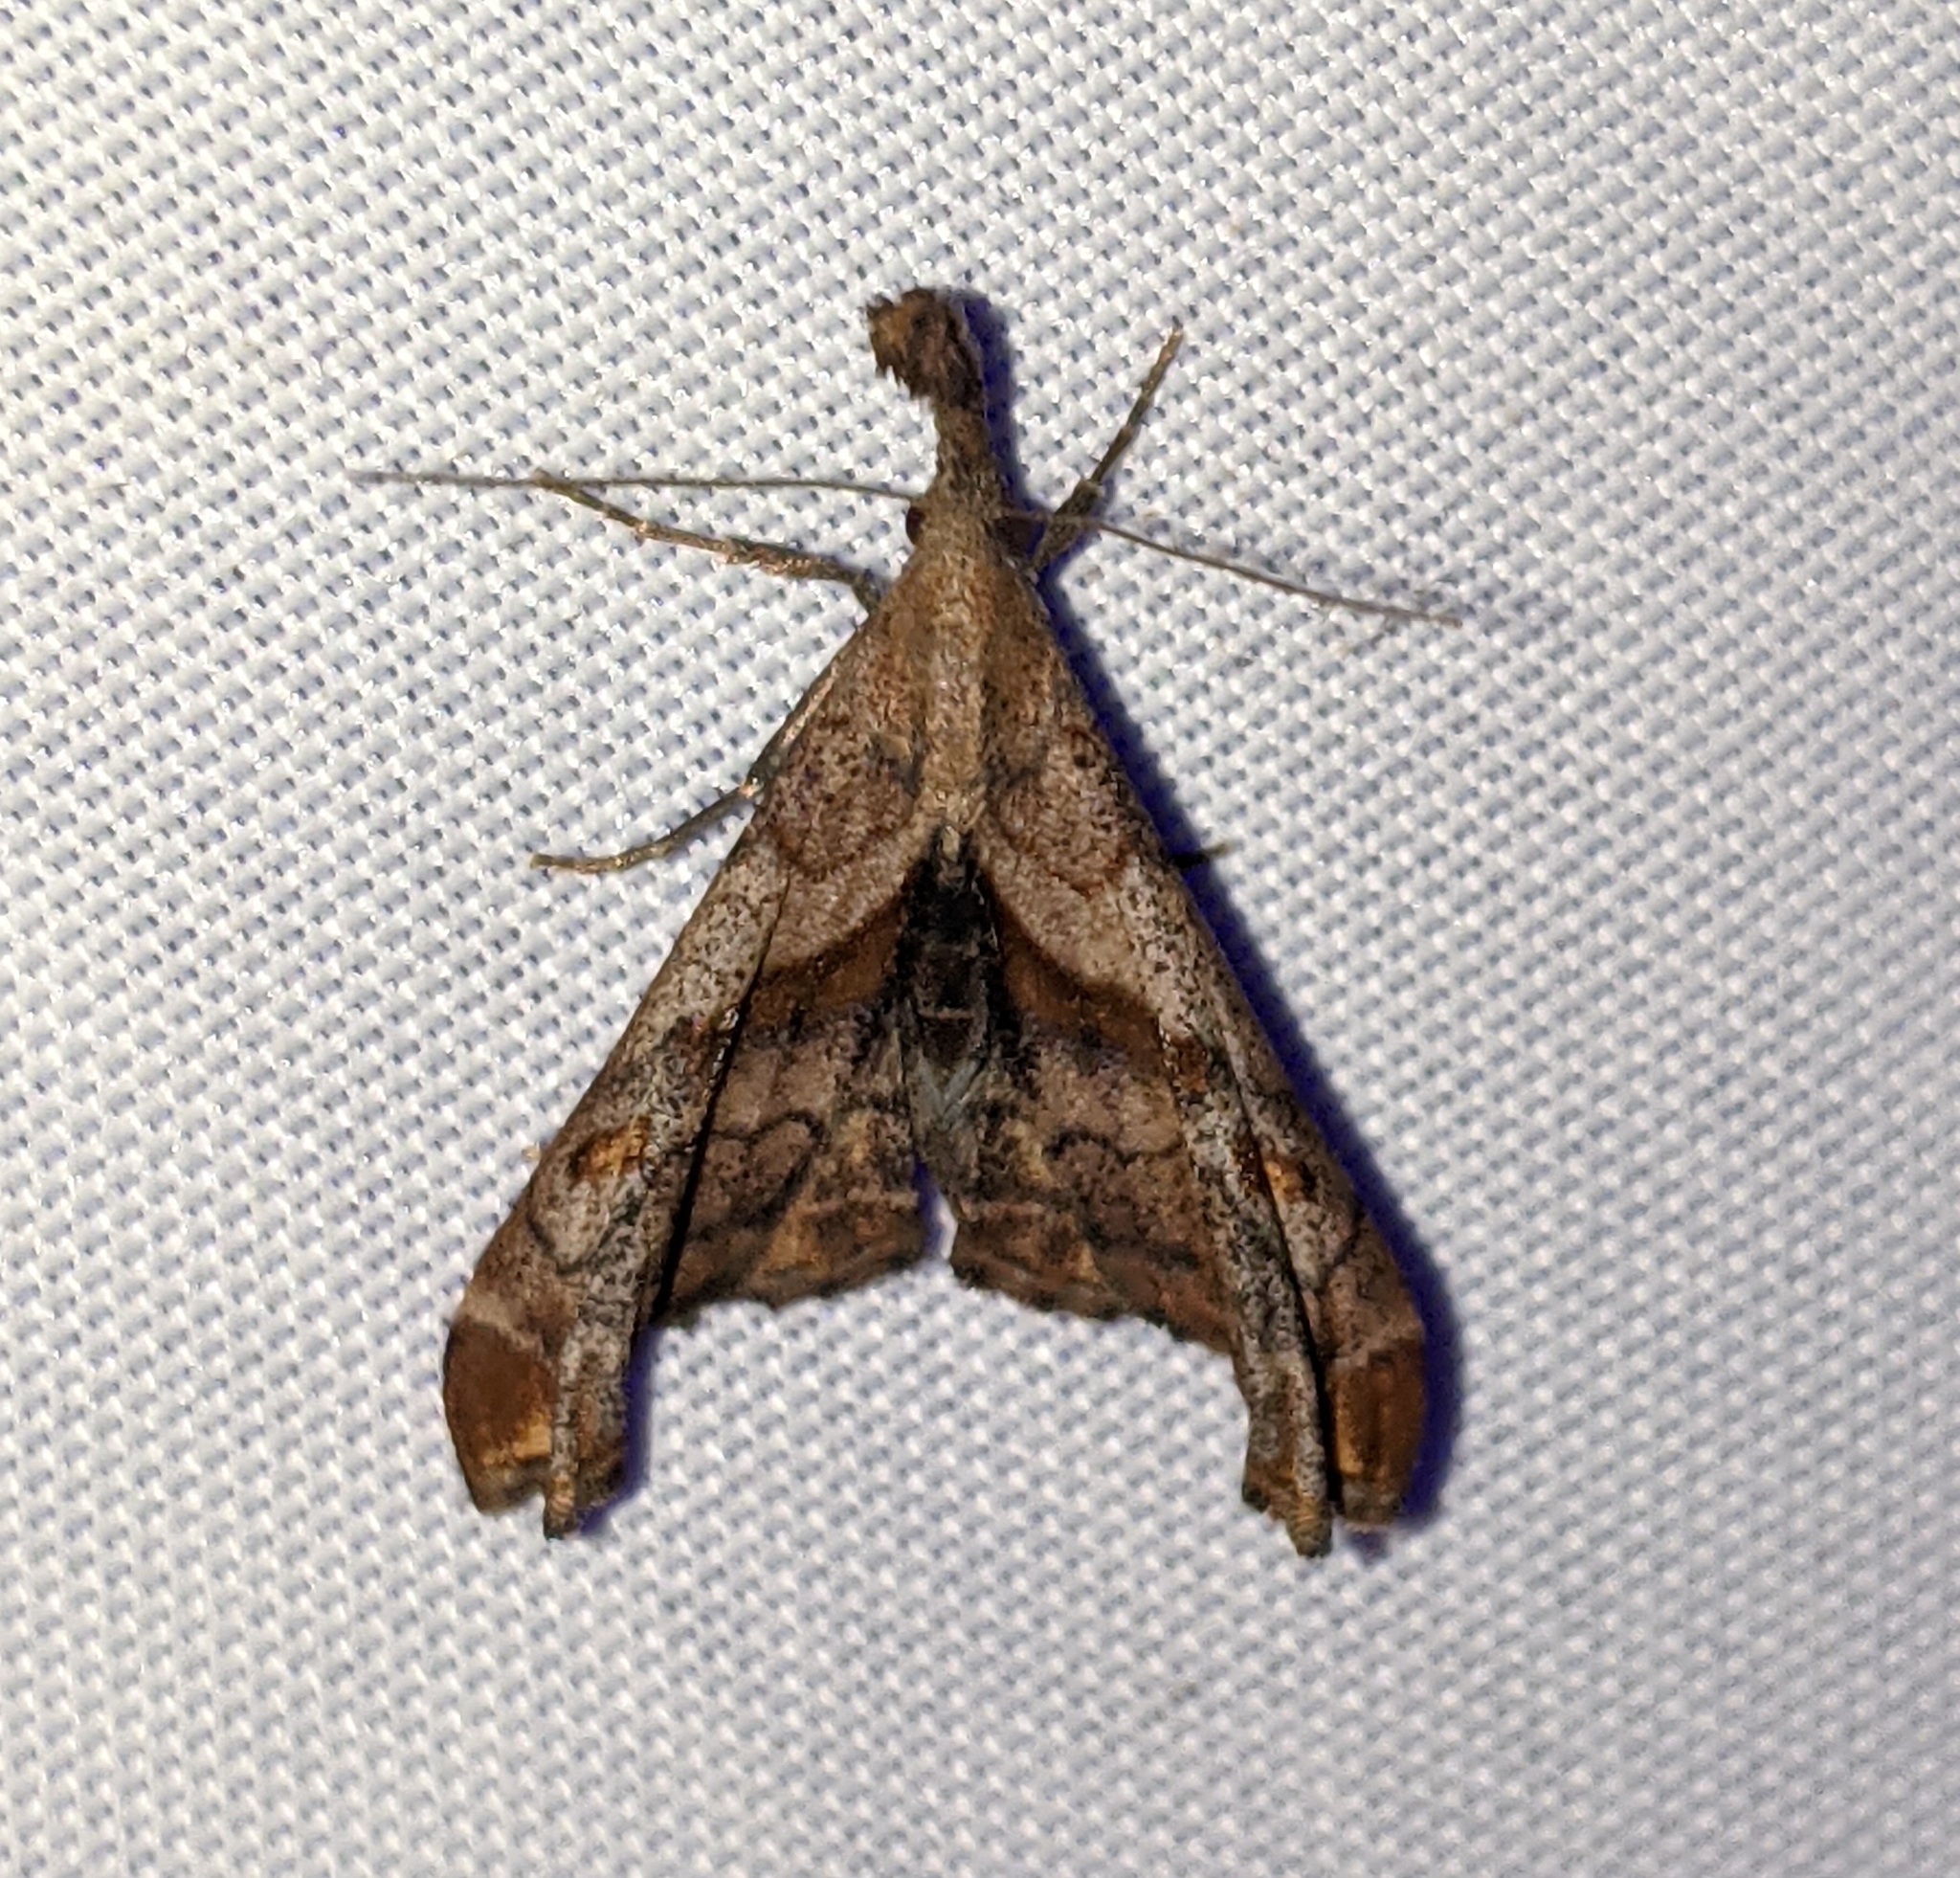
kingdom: Animalia
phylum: Arthropoda
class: Insecta
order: Lepidoptera
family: Erebidae
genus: Palthis
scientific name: Palthis angulalis
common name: Dark-spotted palthis moth
